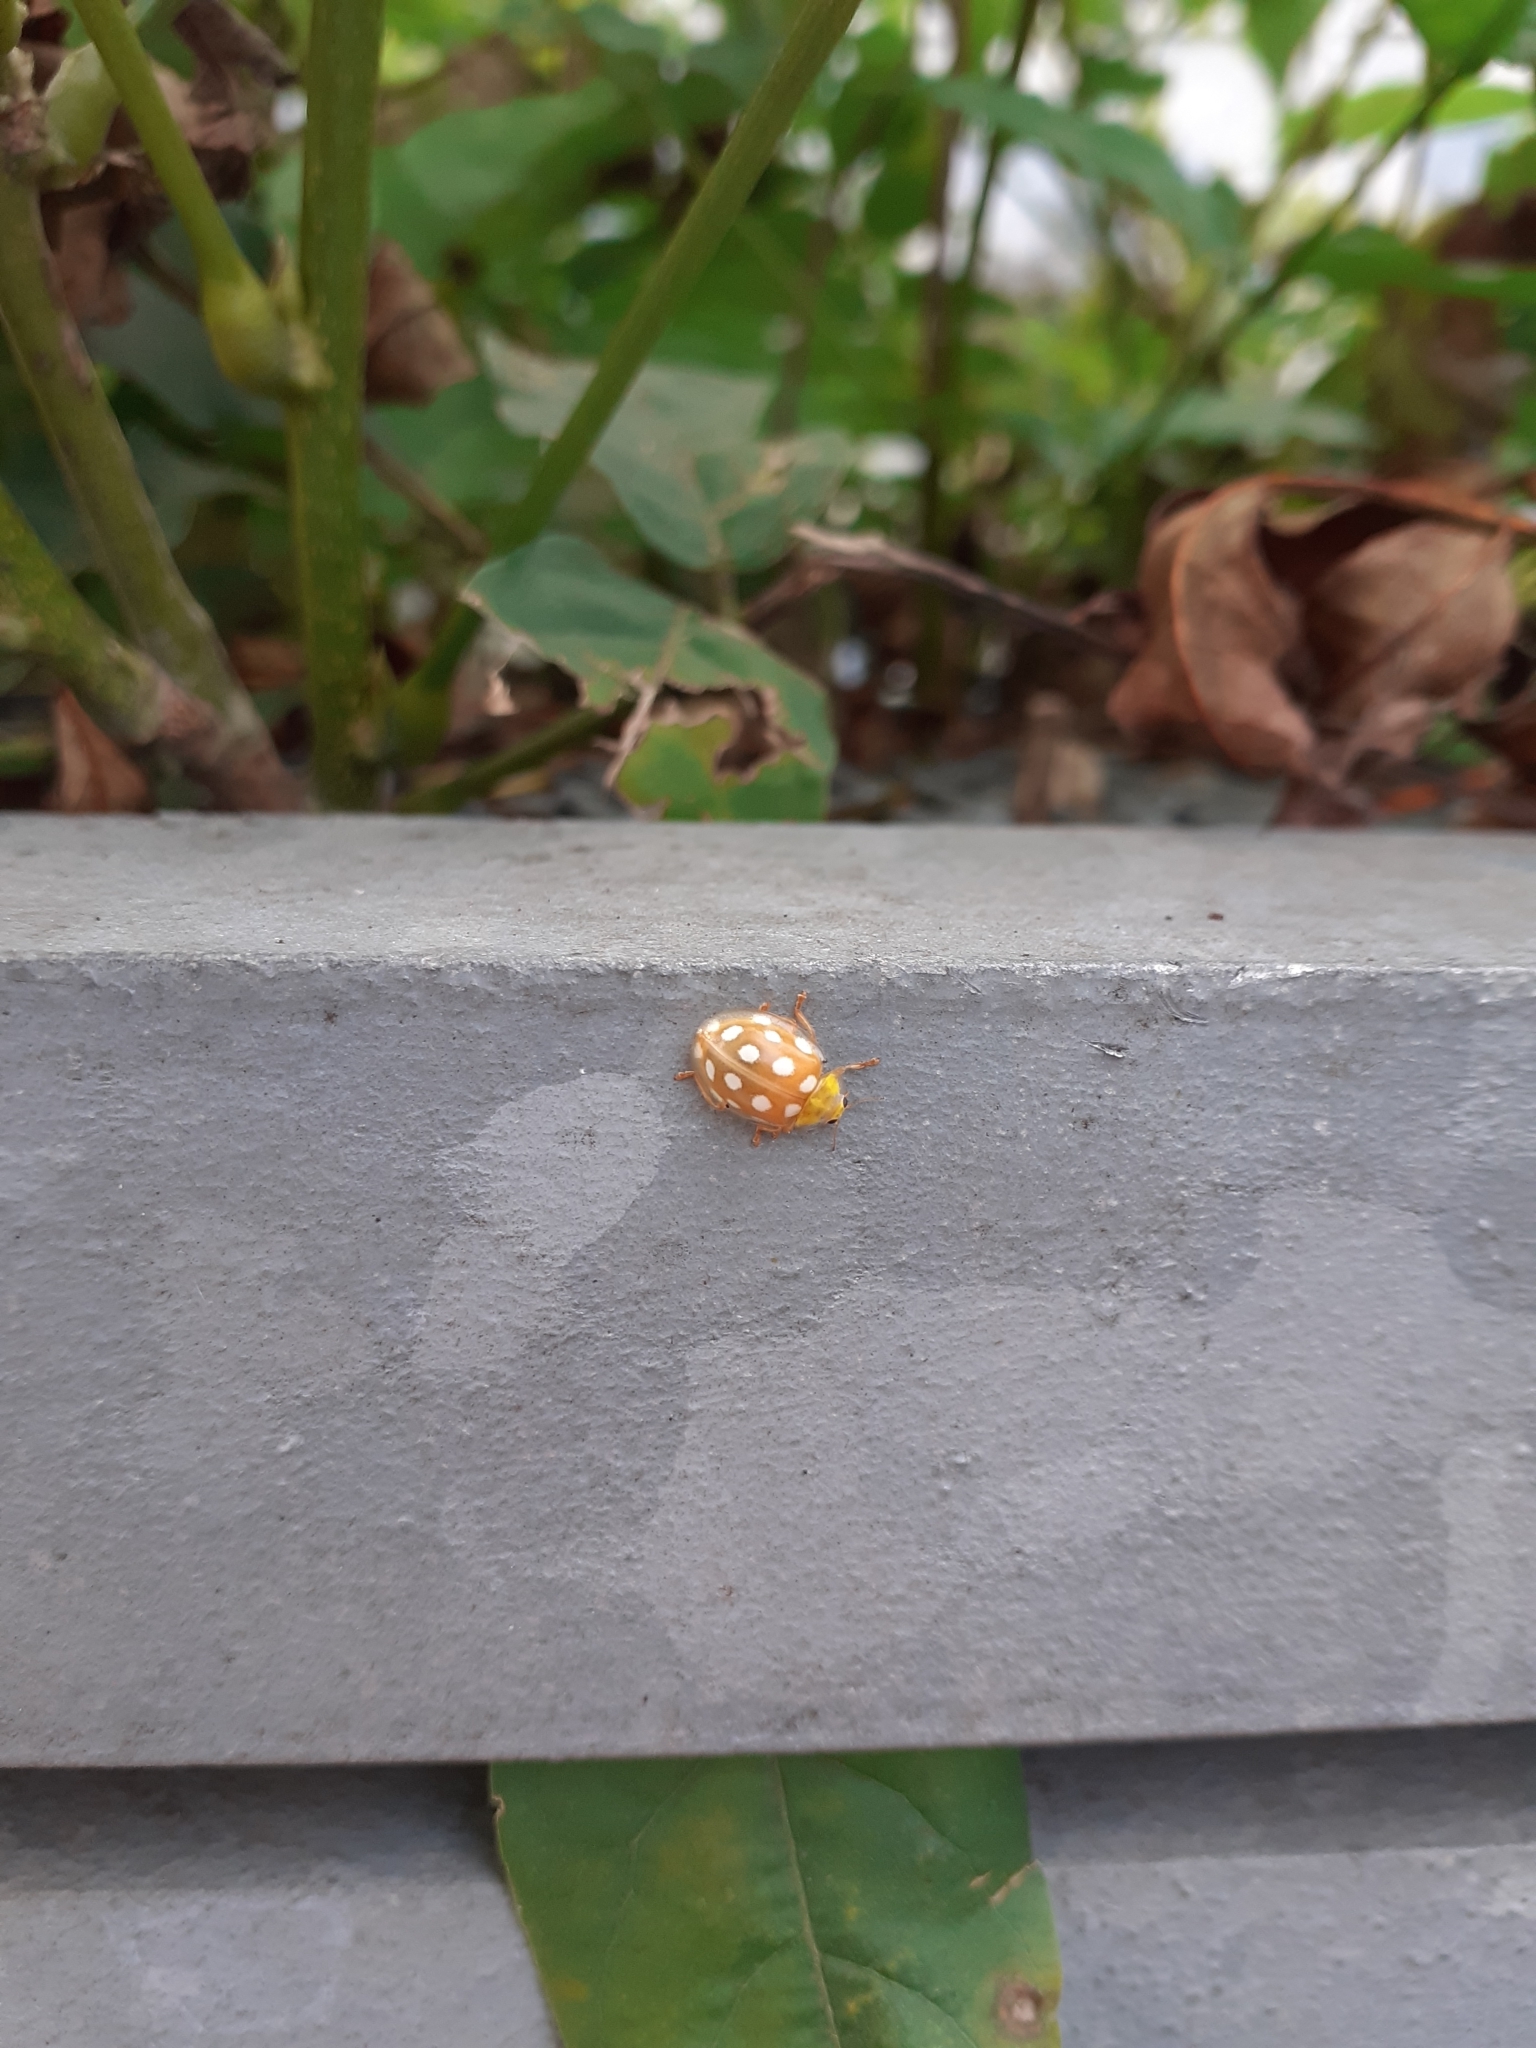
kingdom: Animalia
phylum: Arthropoda
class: Insecta
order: Coleoptera
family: Coccinellidae
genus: Halyzia
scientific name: Halyzia sedecimguttata
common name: Orange ladybird
